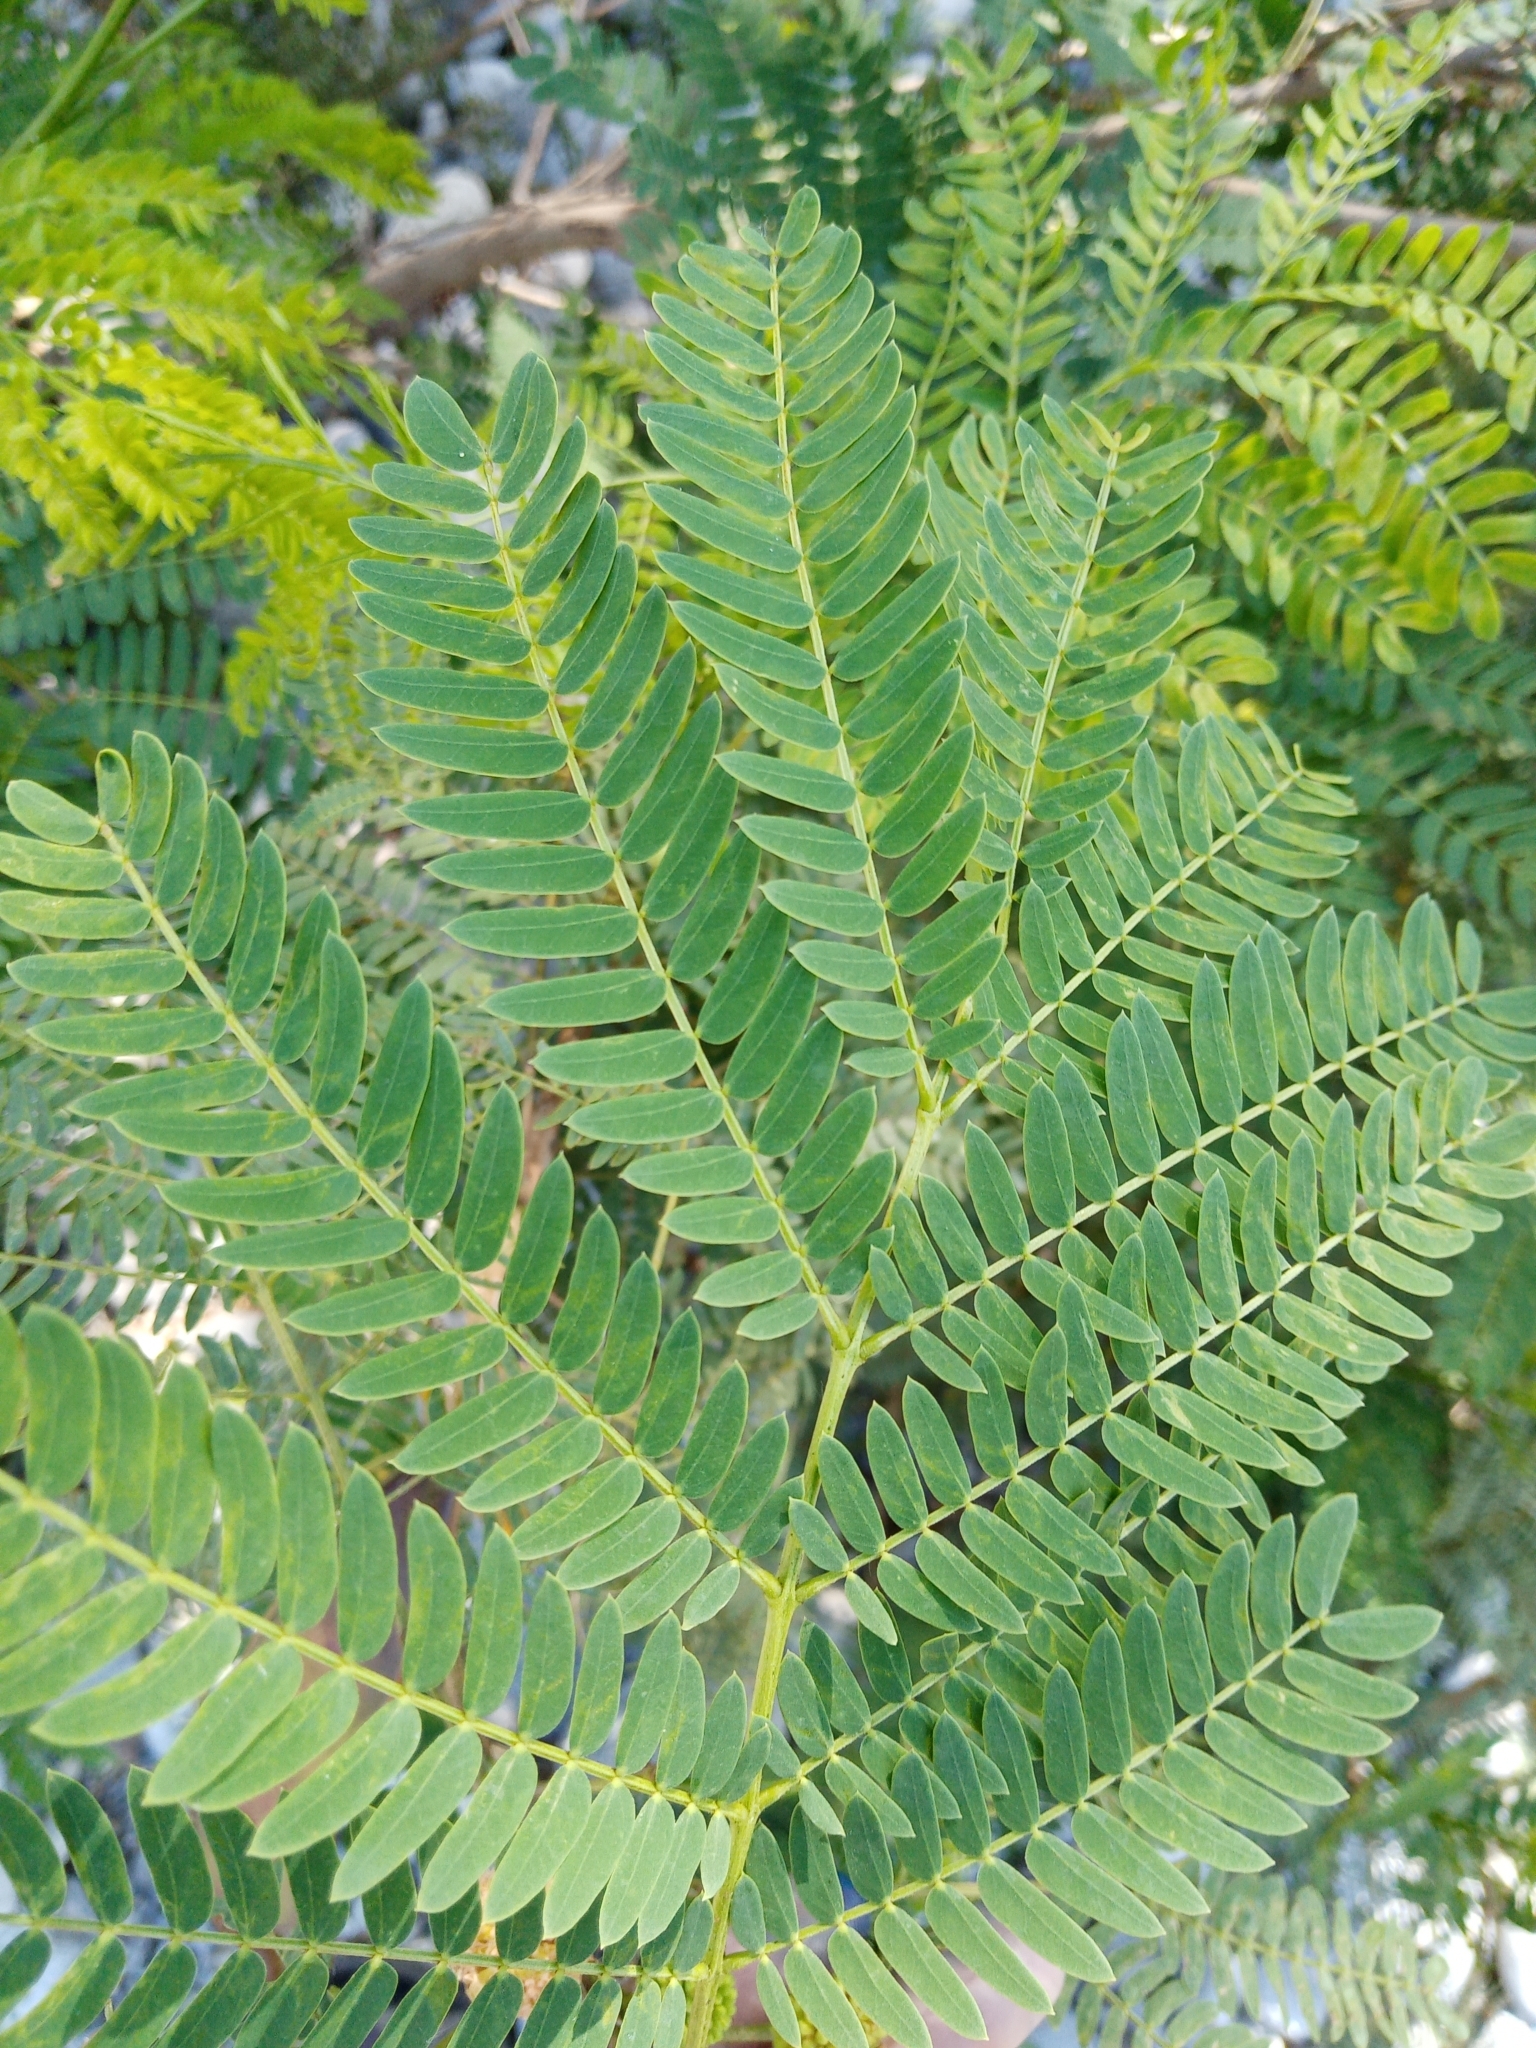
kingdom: Plantae
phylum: Tracheophyta
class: Magnoliopsida
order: Fabales
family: Fabaceae
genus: Leucaena
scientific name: Leucaena leucocephala
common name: White leadtree
